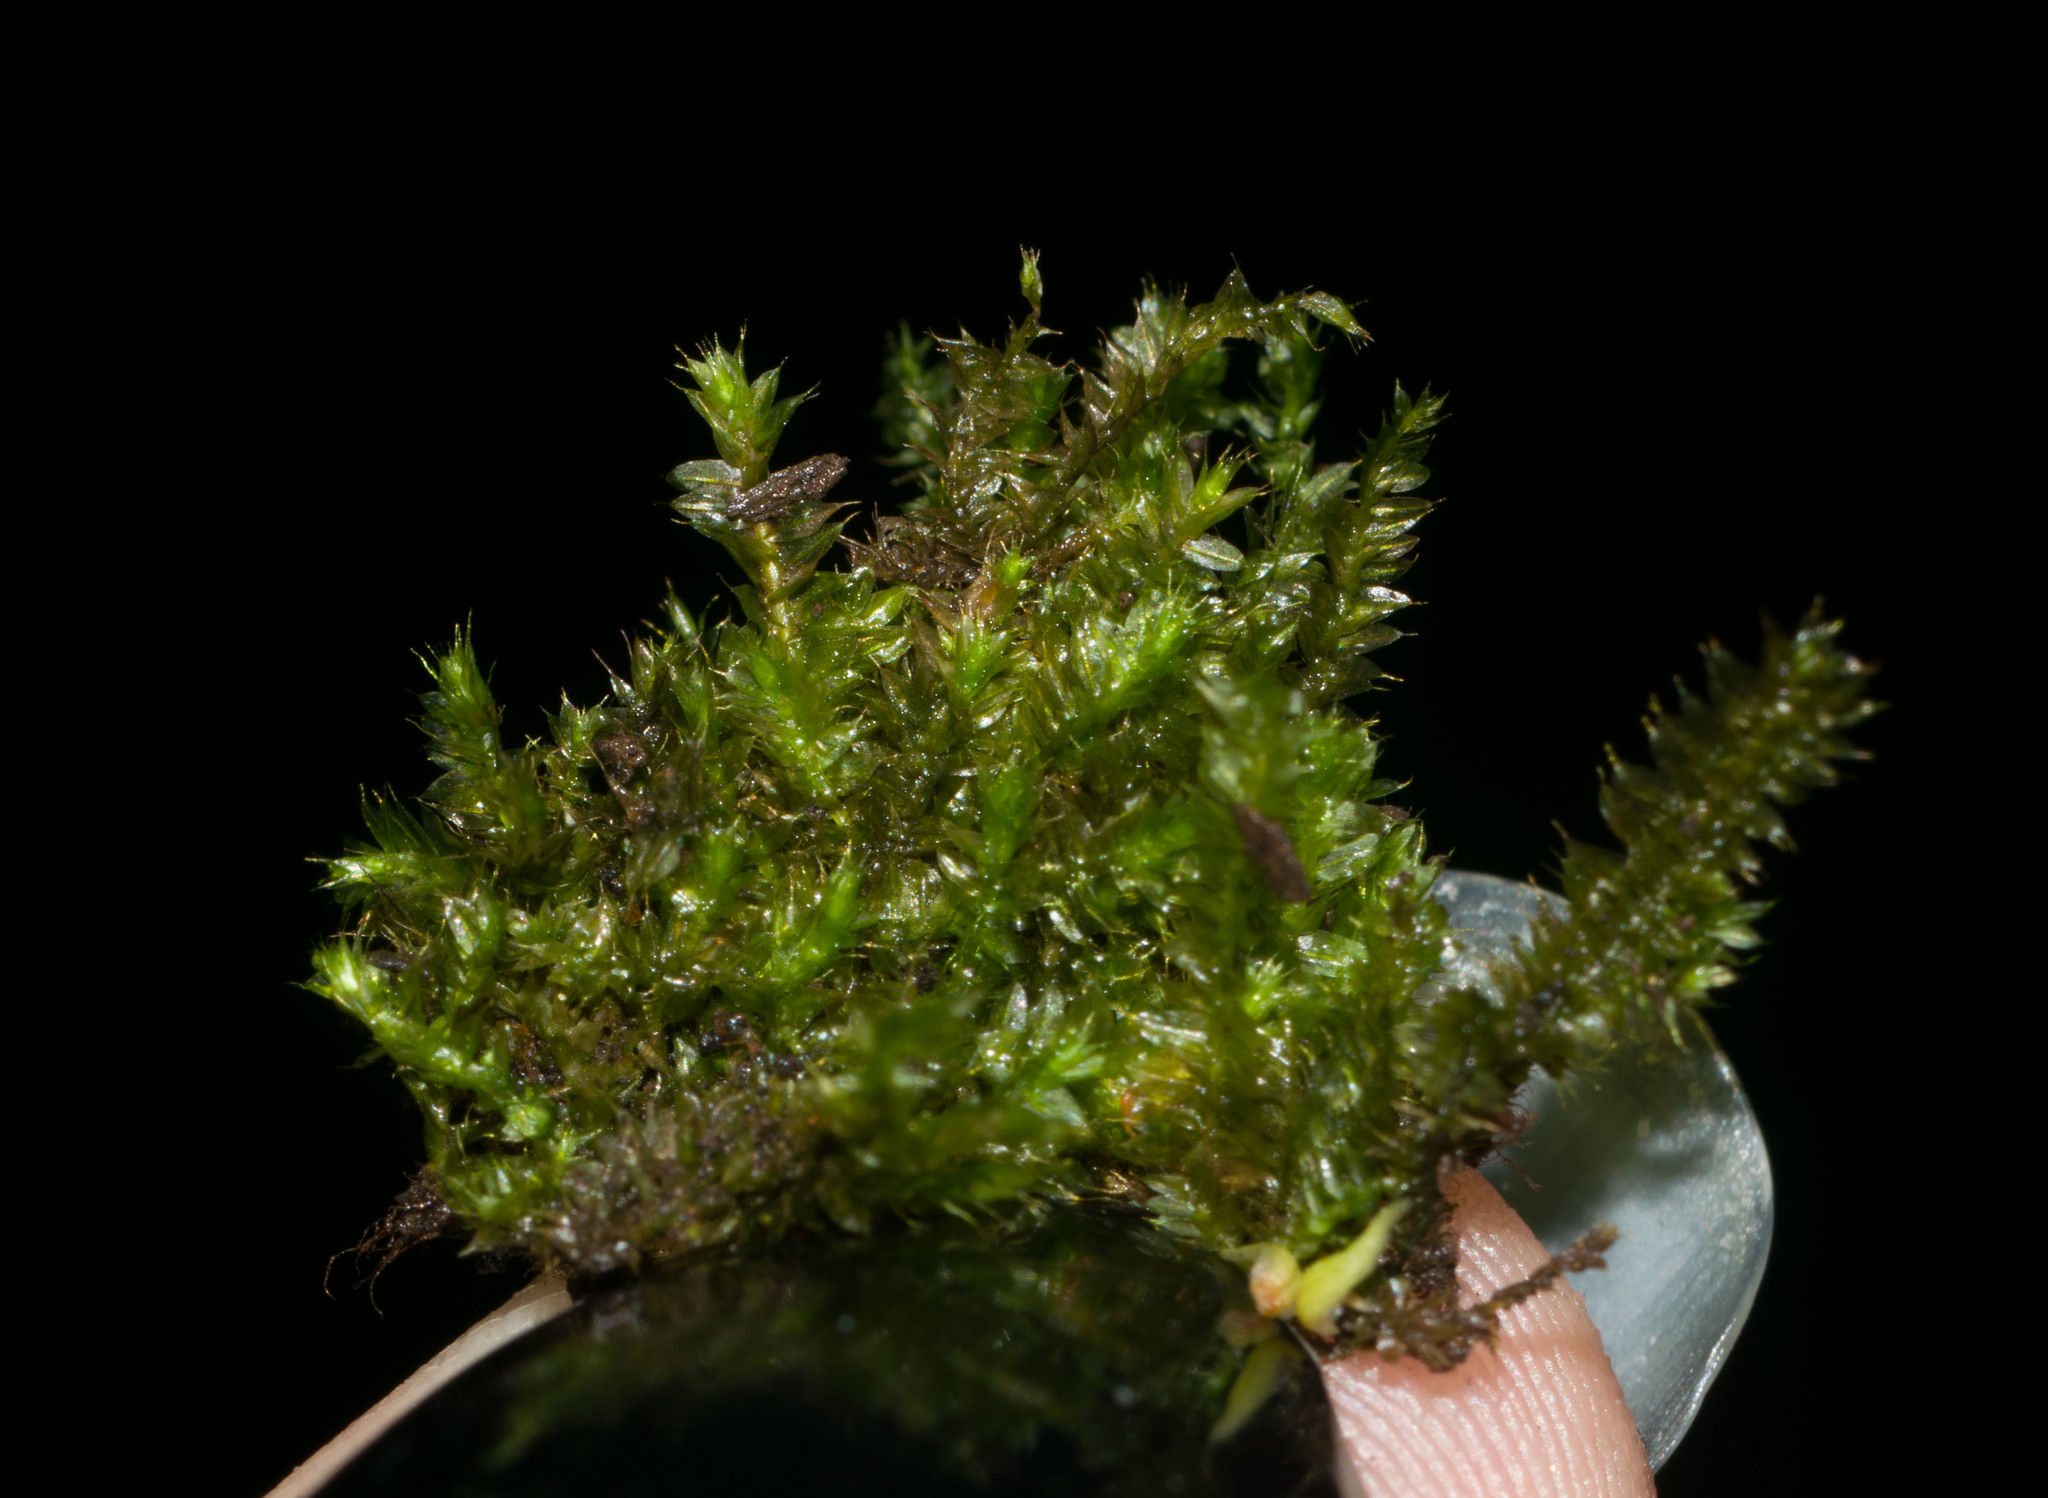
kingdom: Plantae
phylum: Bryophyta
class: Bryopsida
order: Hypnodendrales
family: Racopilaceae
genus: Racopilum
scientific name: Racopilum cuspidigerum
